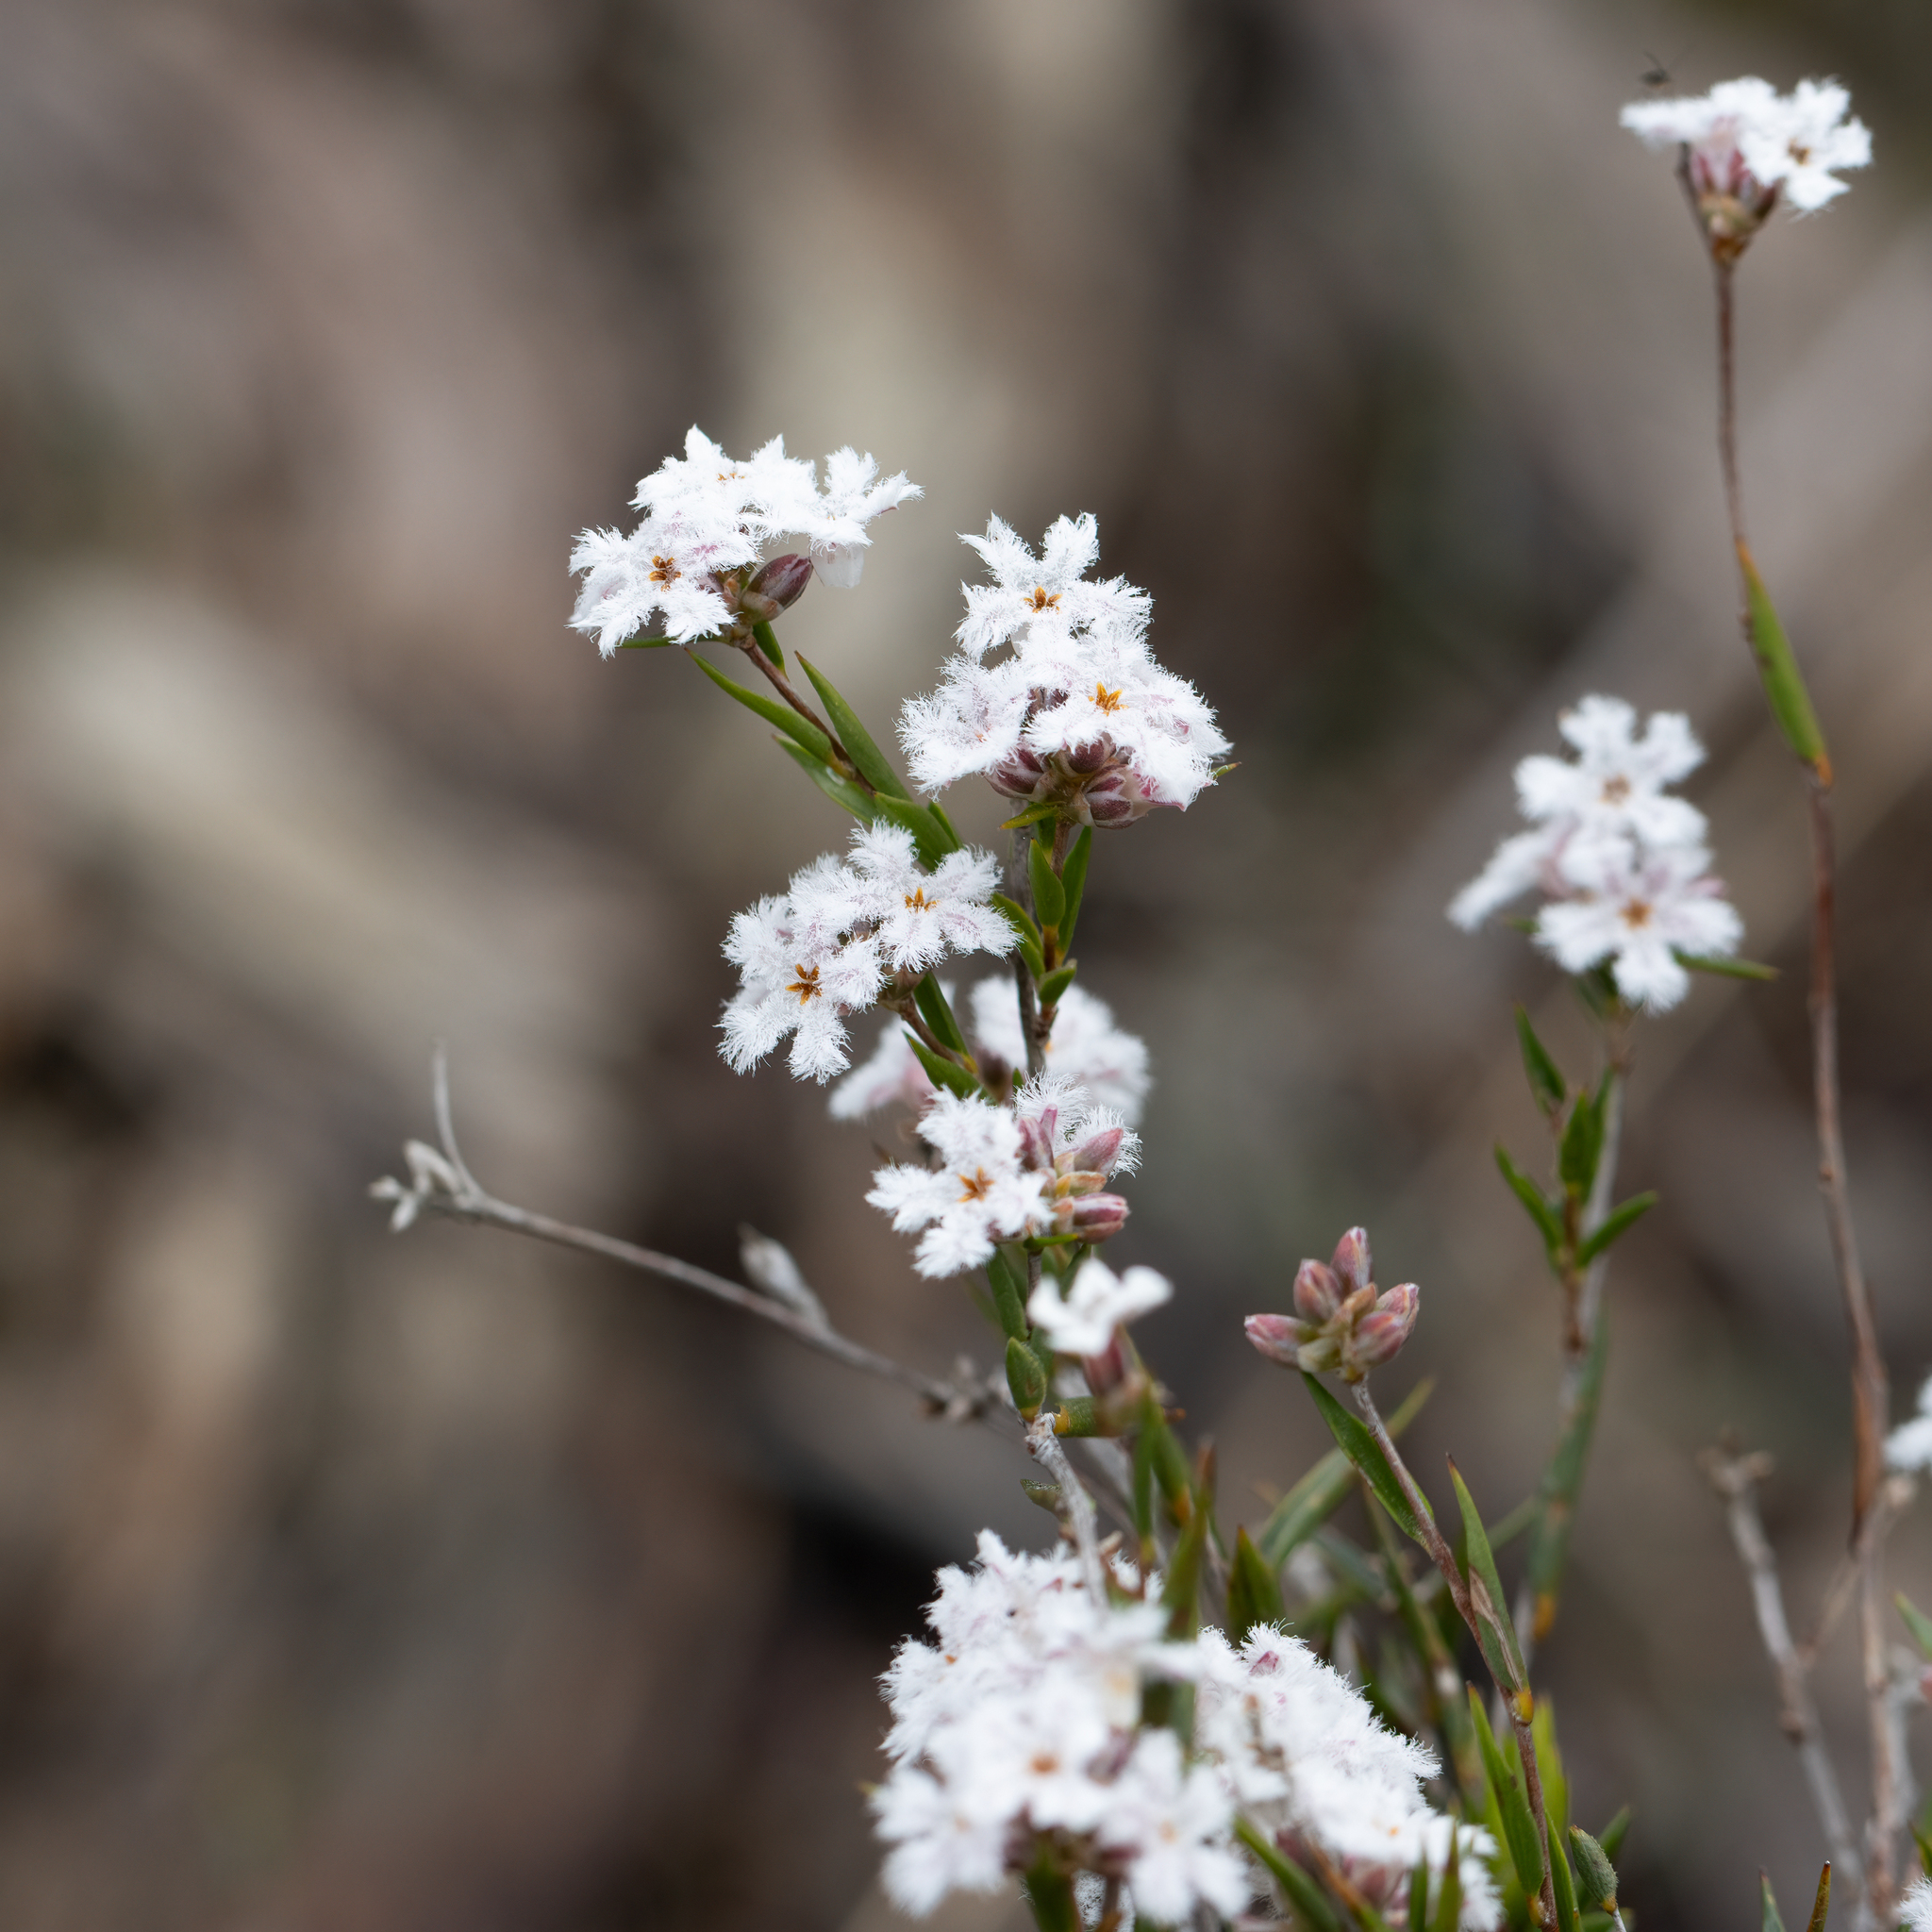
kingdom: Plantae
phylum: Tracheophyta
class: Magnoliopsida
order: Ericales
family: Ericaceae
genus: Leucopogon
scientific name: Leucopogon virgatus
